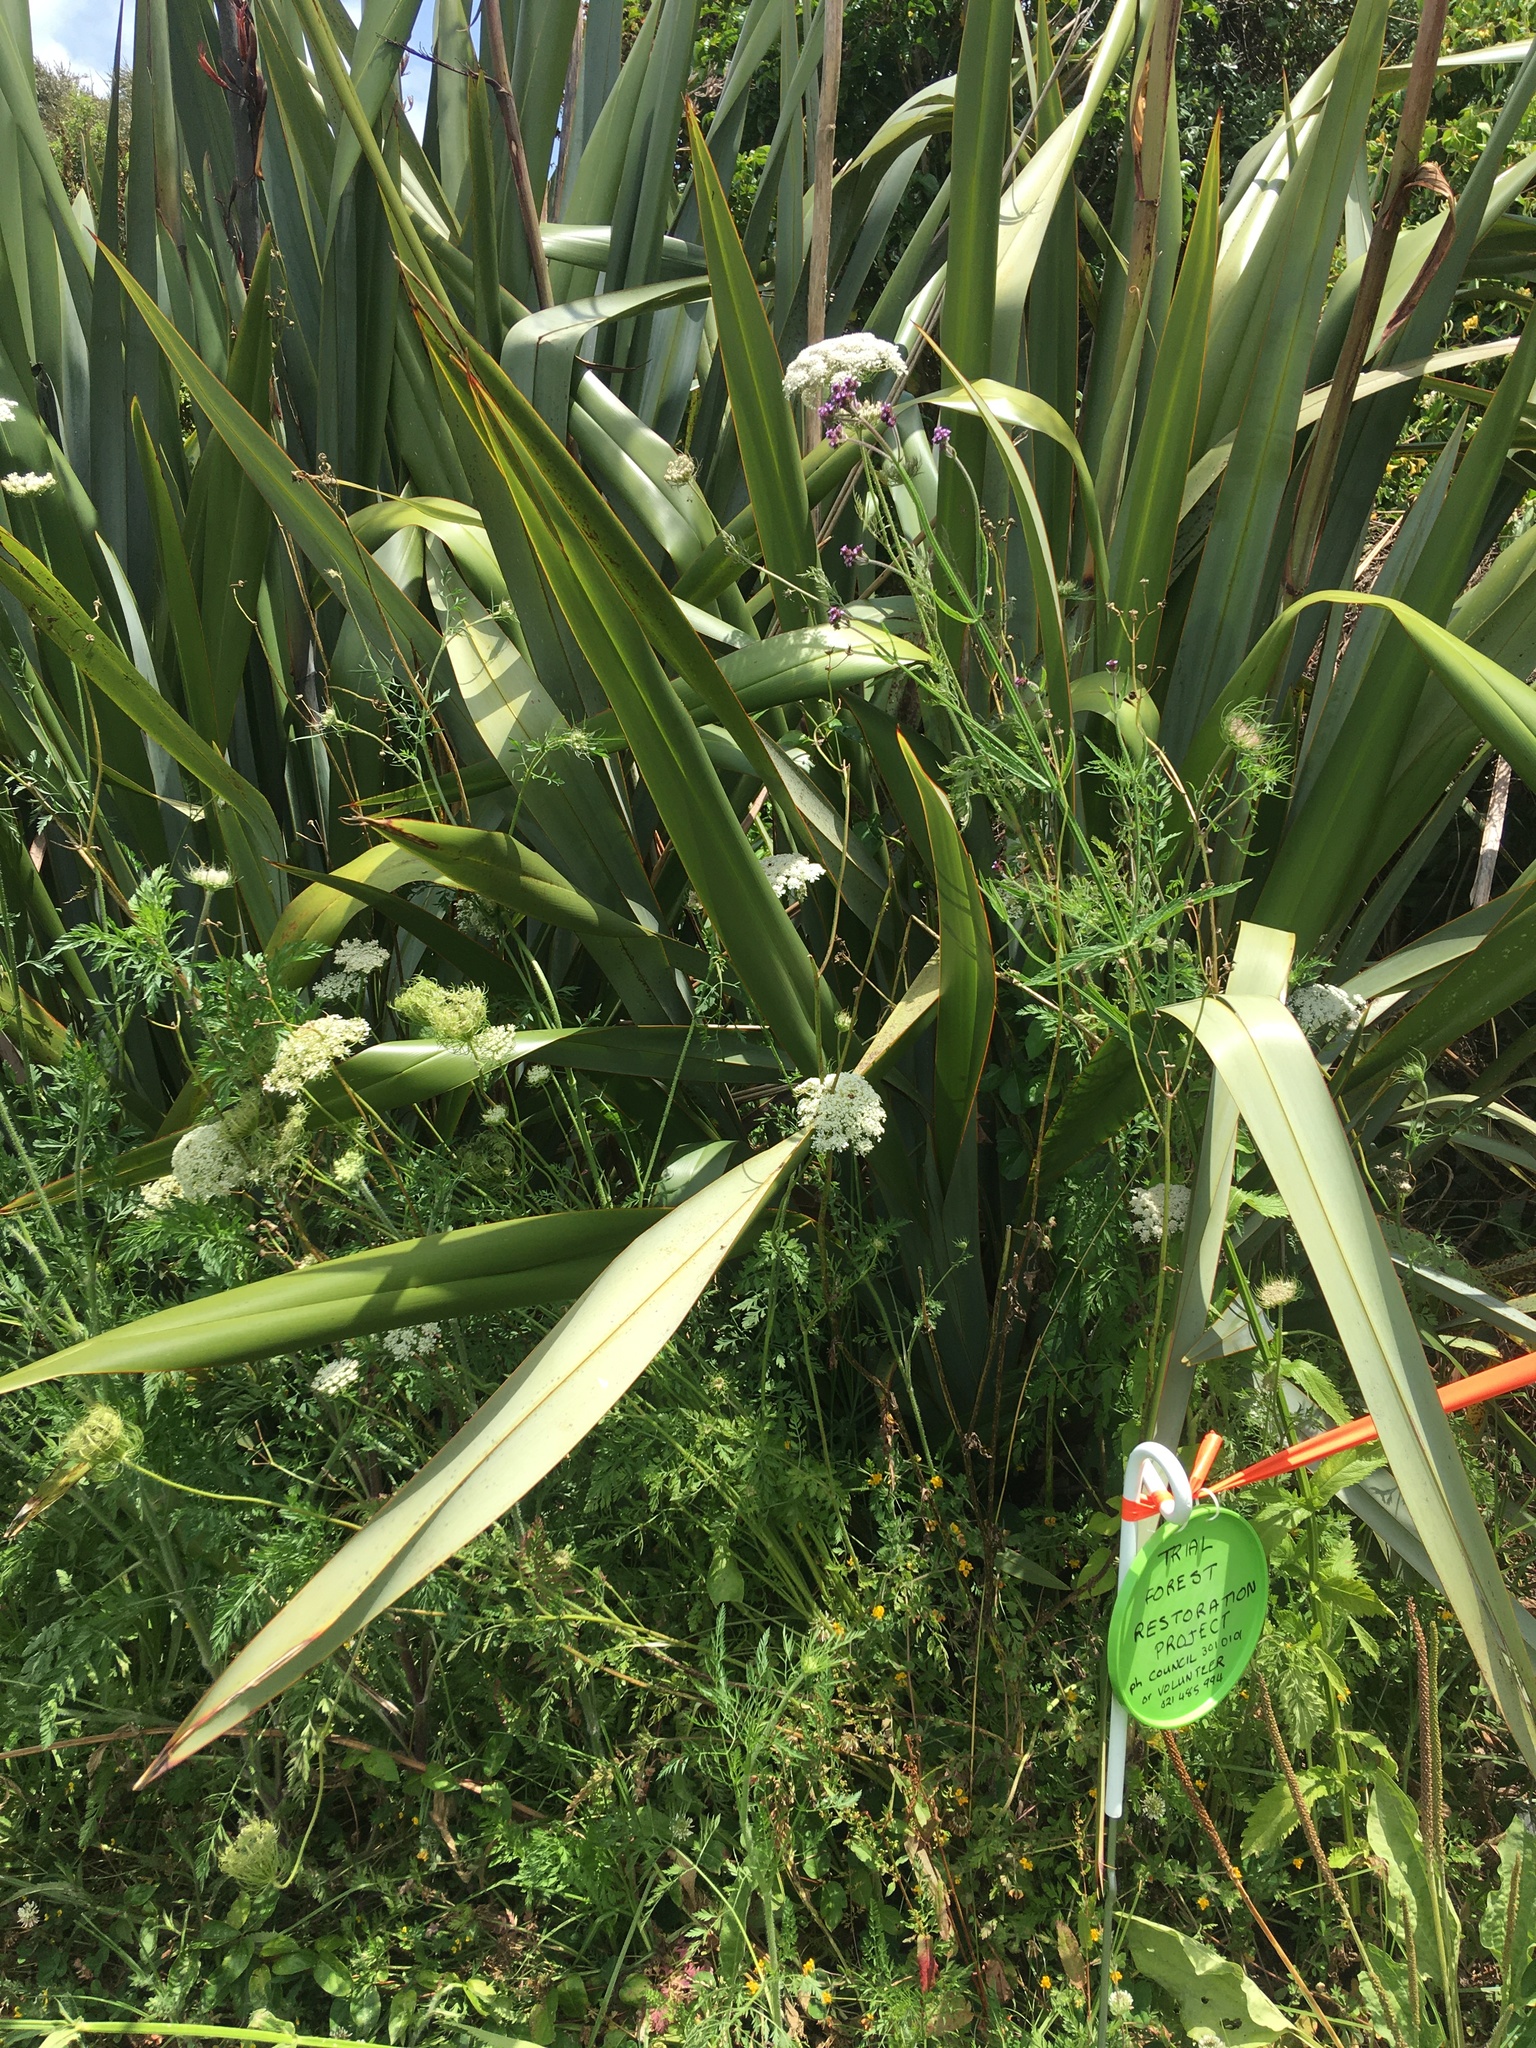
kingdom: Plantae
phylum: Tracheophyta
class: Magnoliopsida
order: Apiales
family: Apiaceae
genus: Daucus
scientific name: Daucus carota
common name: Wild carrot
